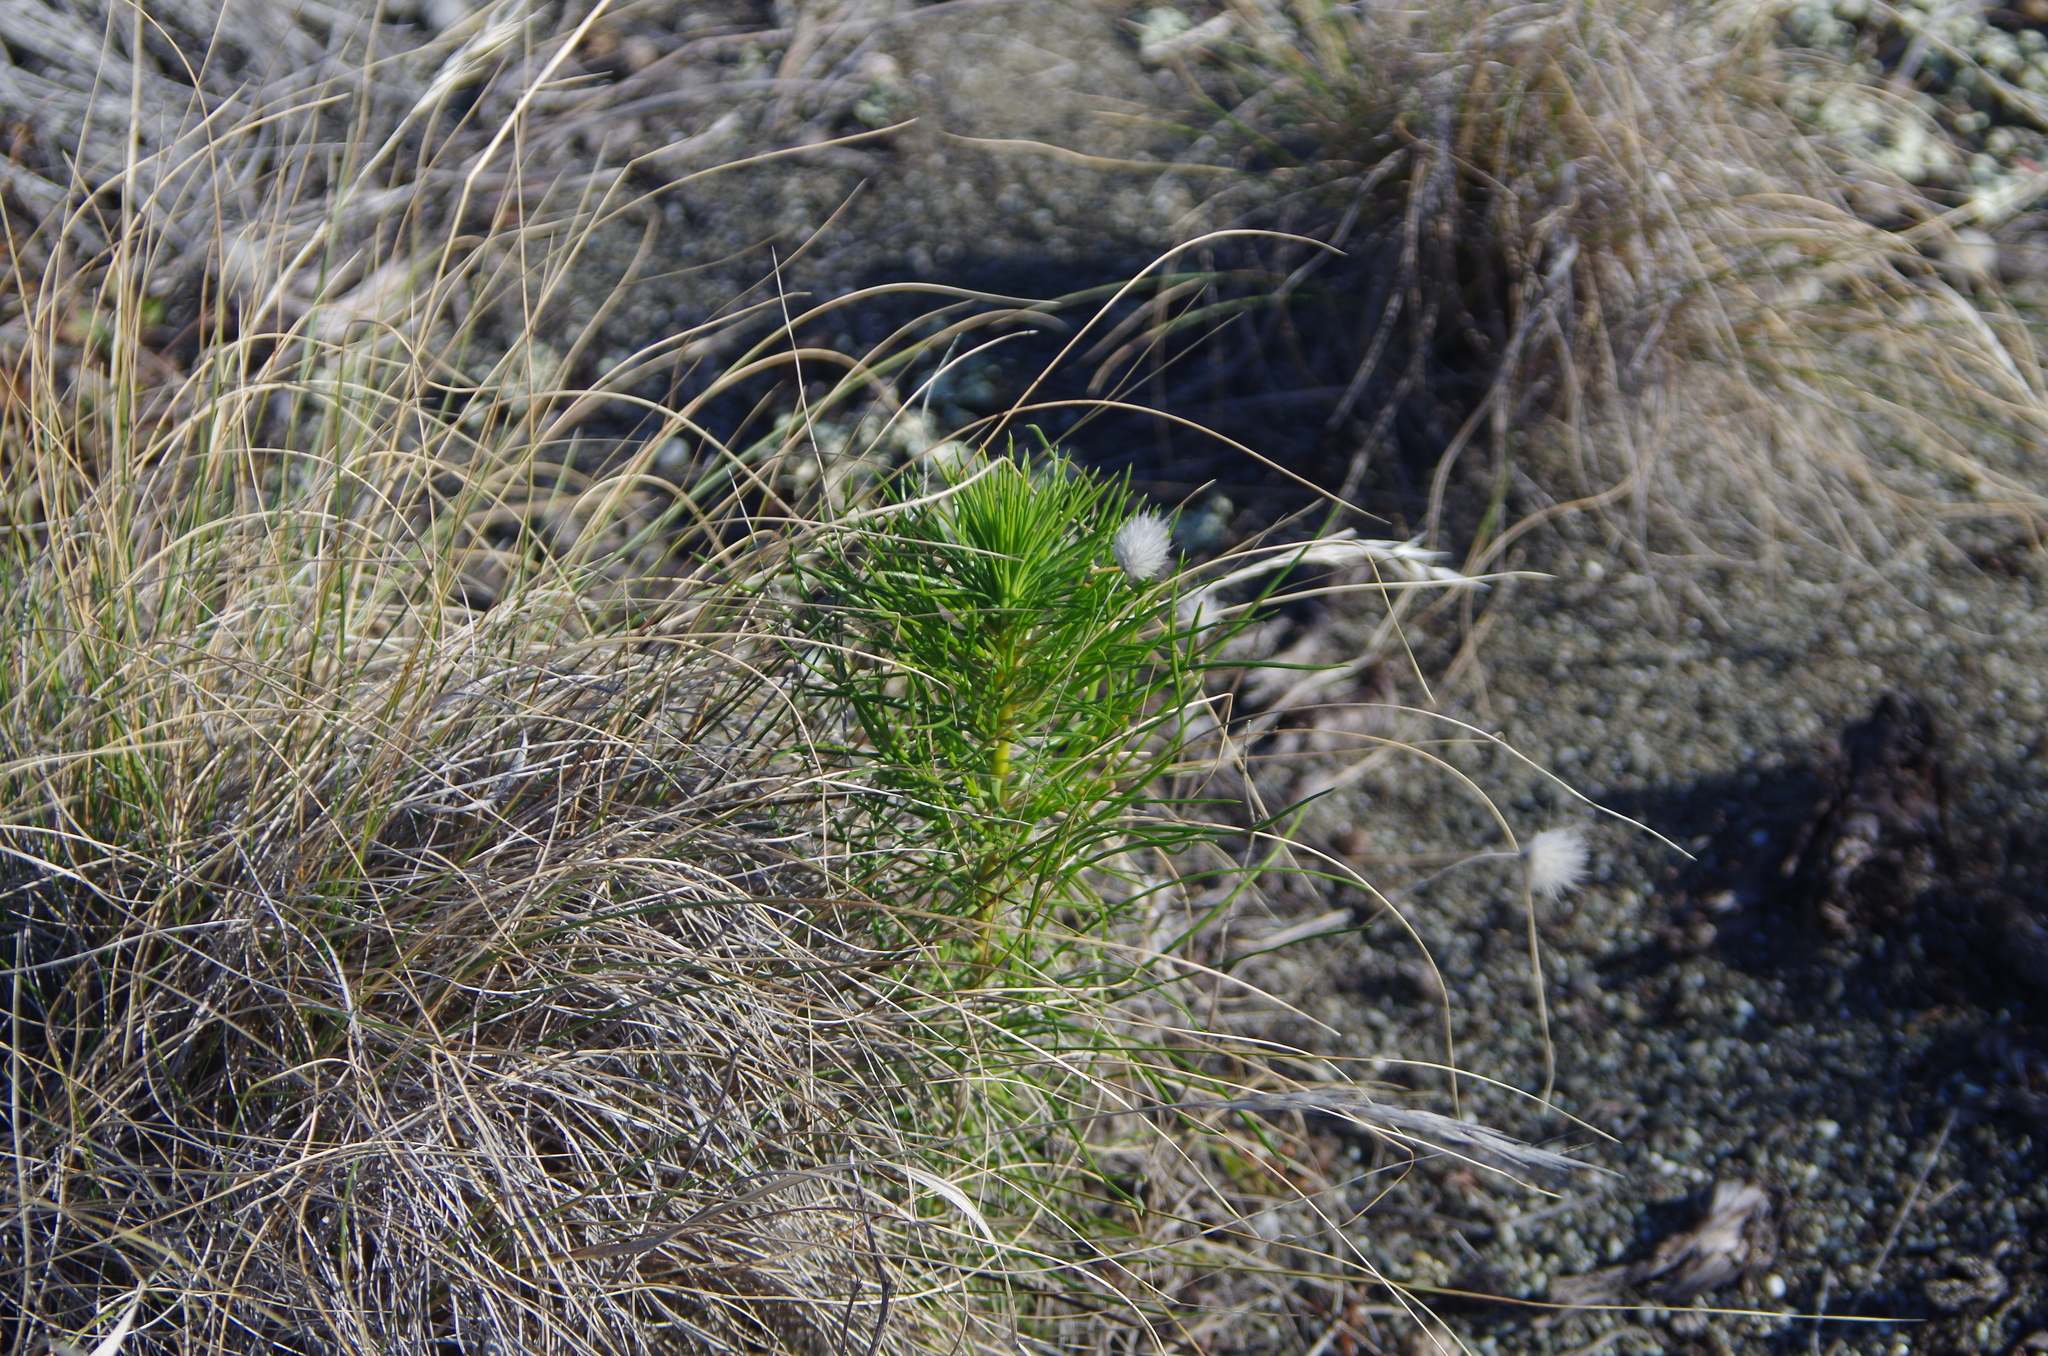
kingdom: Plantae
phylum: Tracheophyta
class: Pinopsida
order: Pinales
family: Pinaceae
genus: Pinus
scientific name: Pinus radiata
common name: Monterey pine
